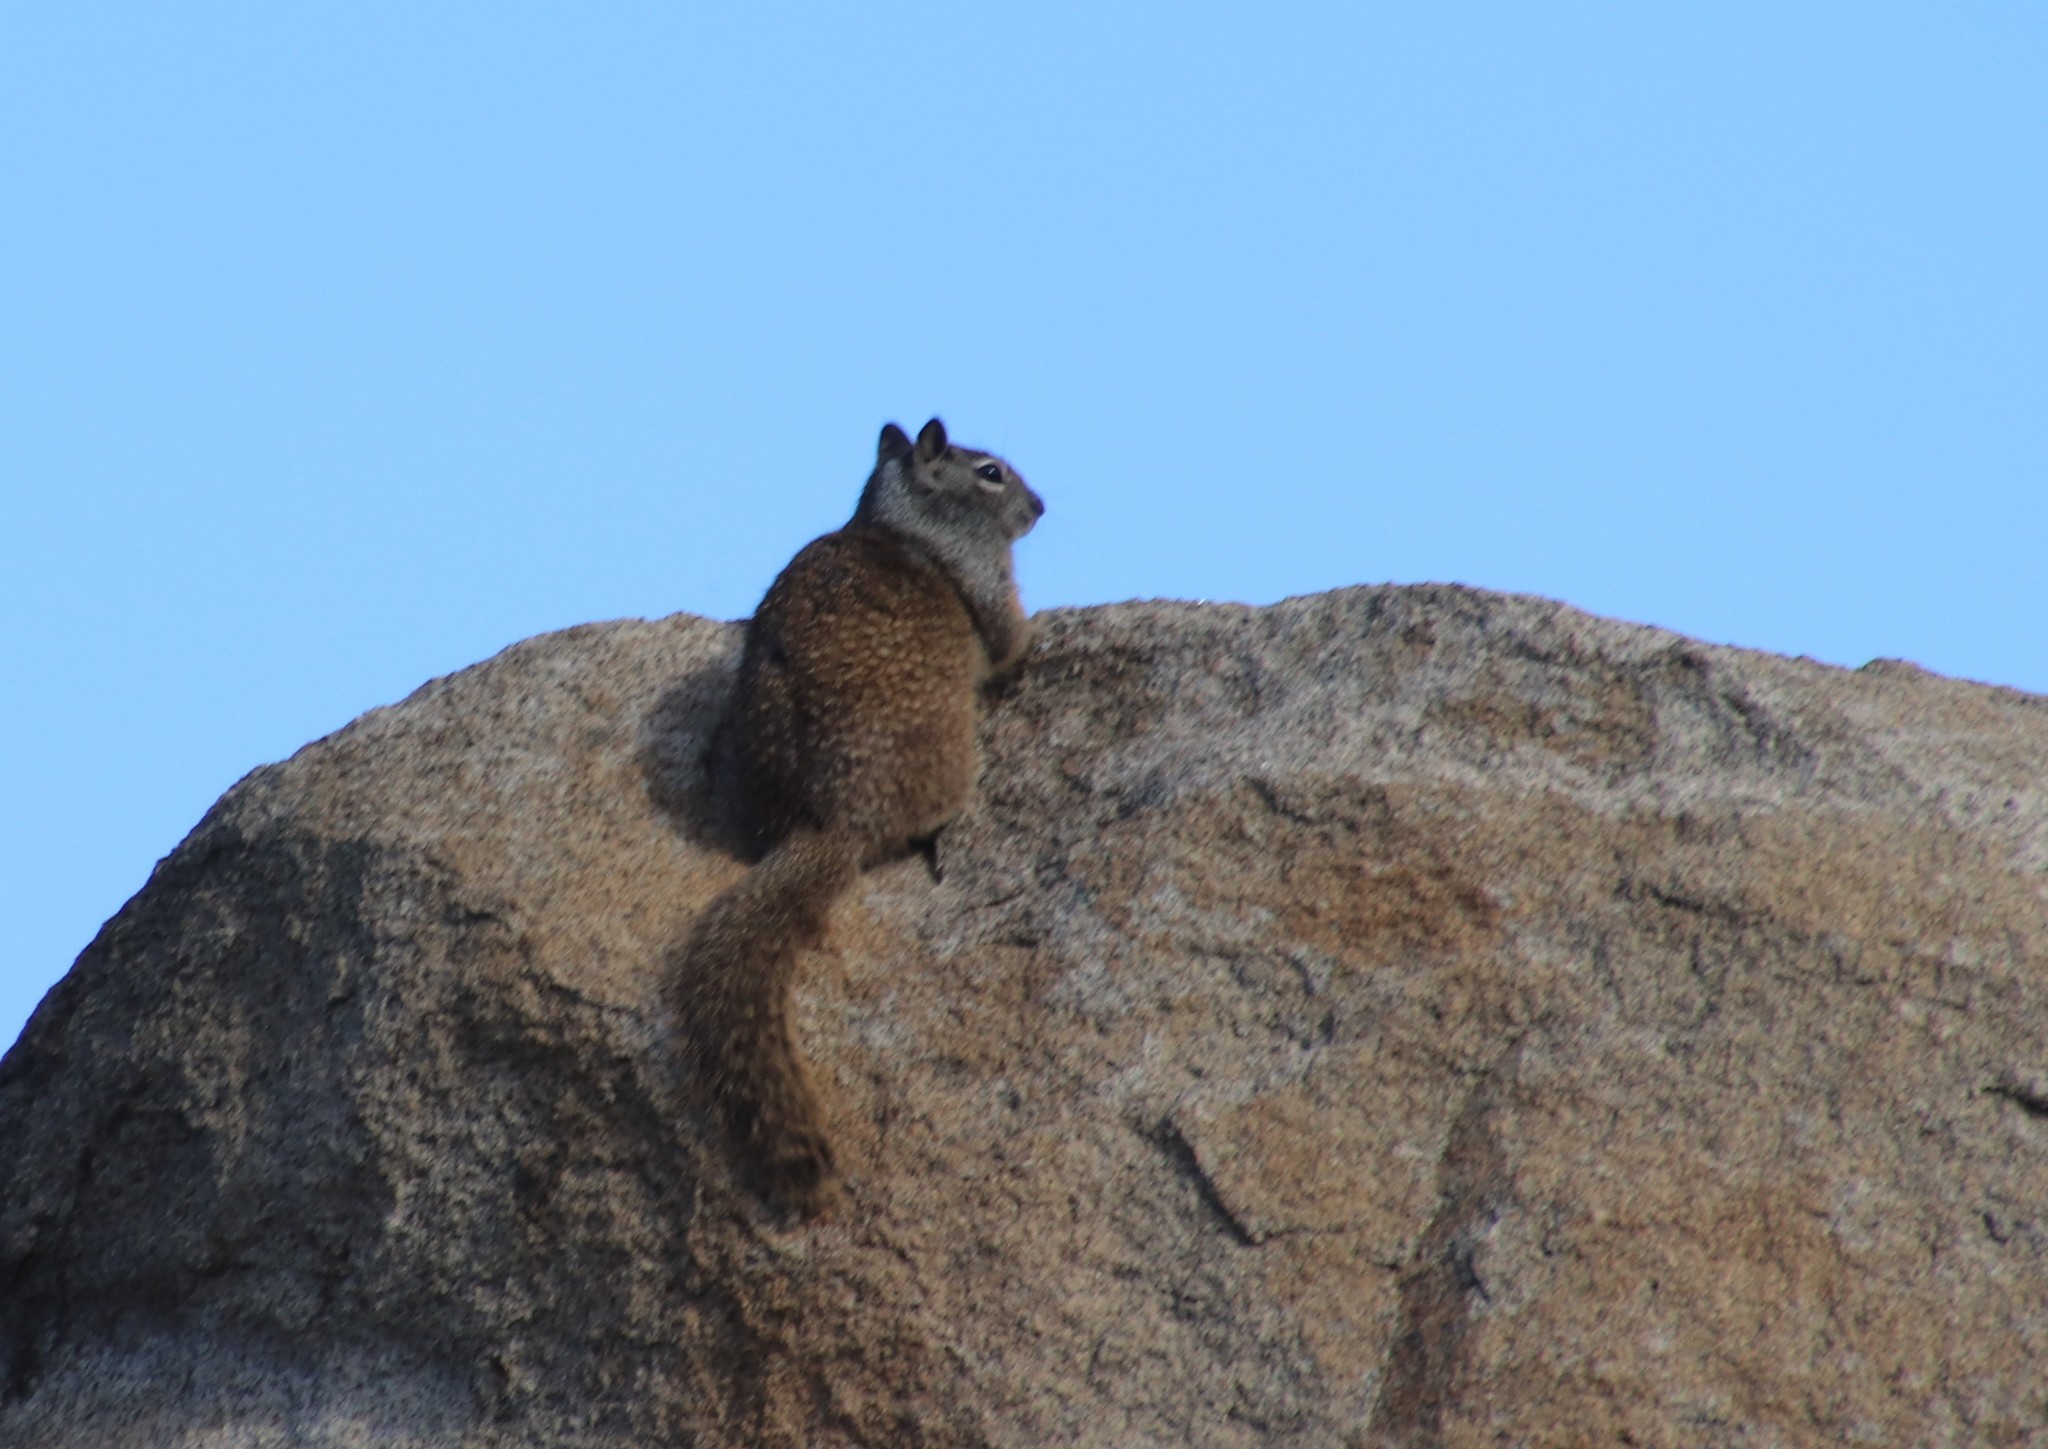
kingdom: Animalia
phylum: Chordata
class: Mammalia
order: Rodentia
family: Sciuridae
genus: Otospermophilus
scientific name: Otospermophilus beecheyi
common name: California ground squirrel
